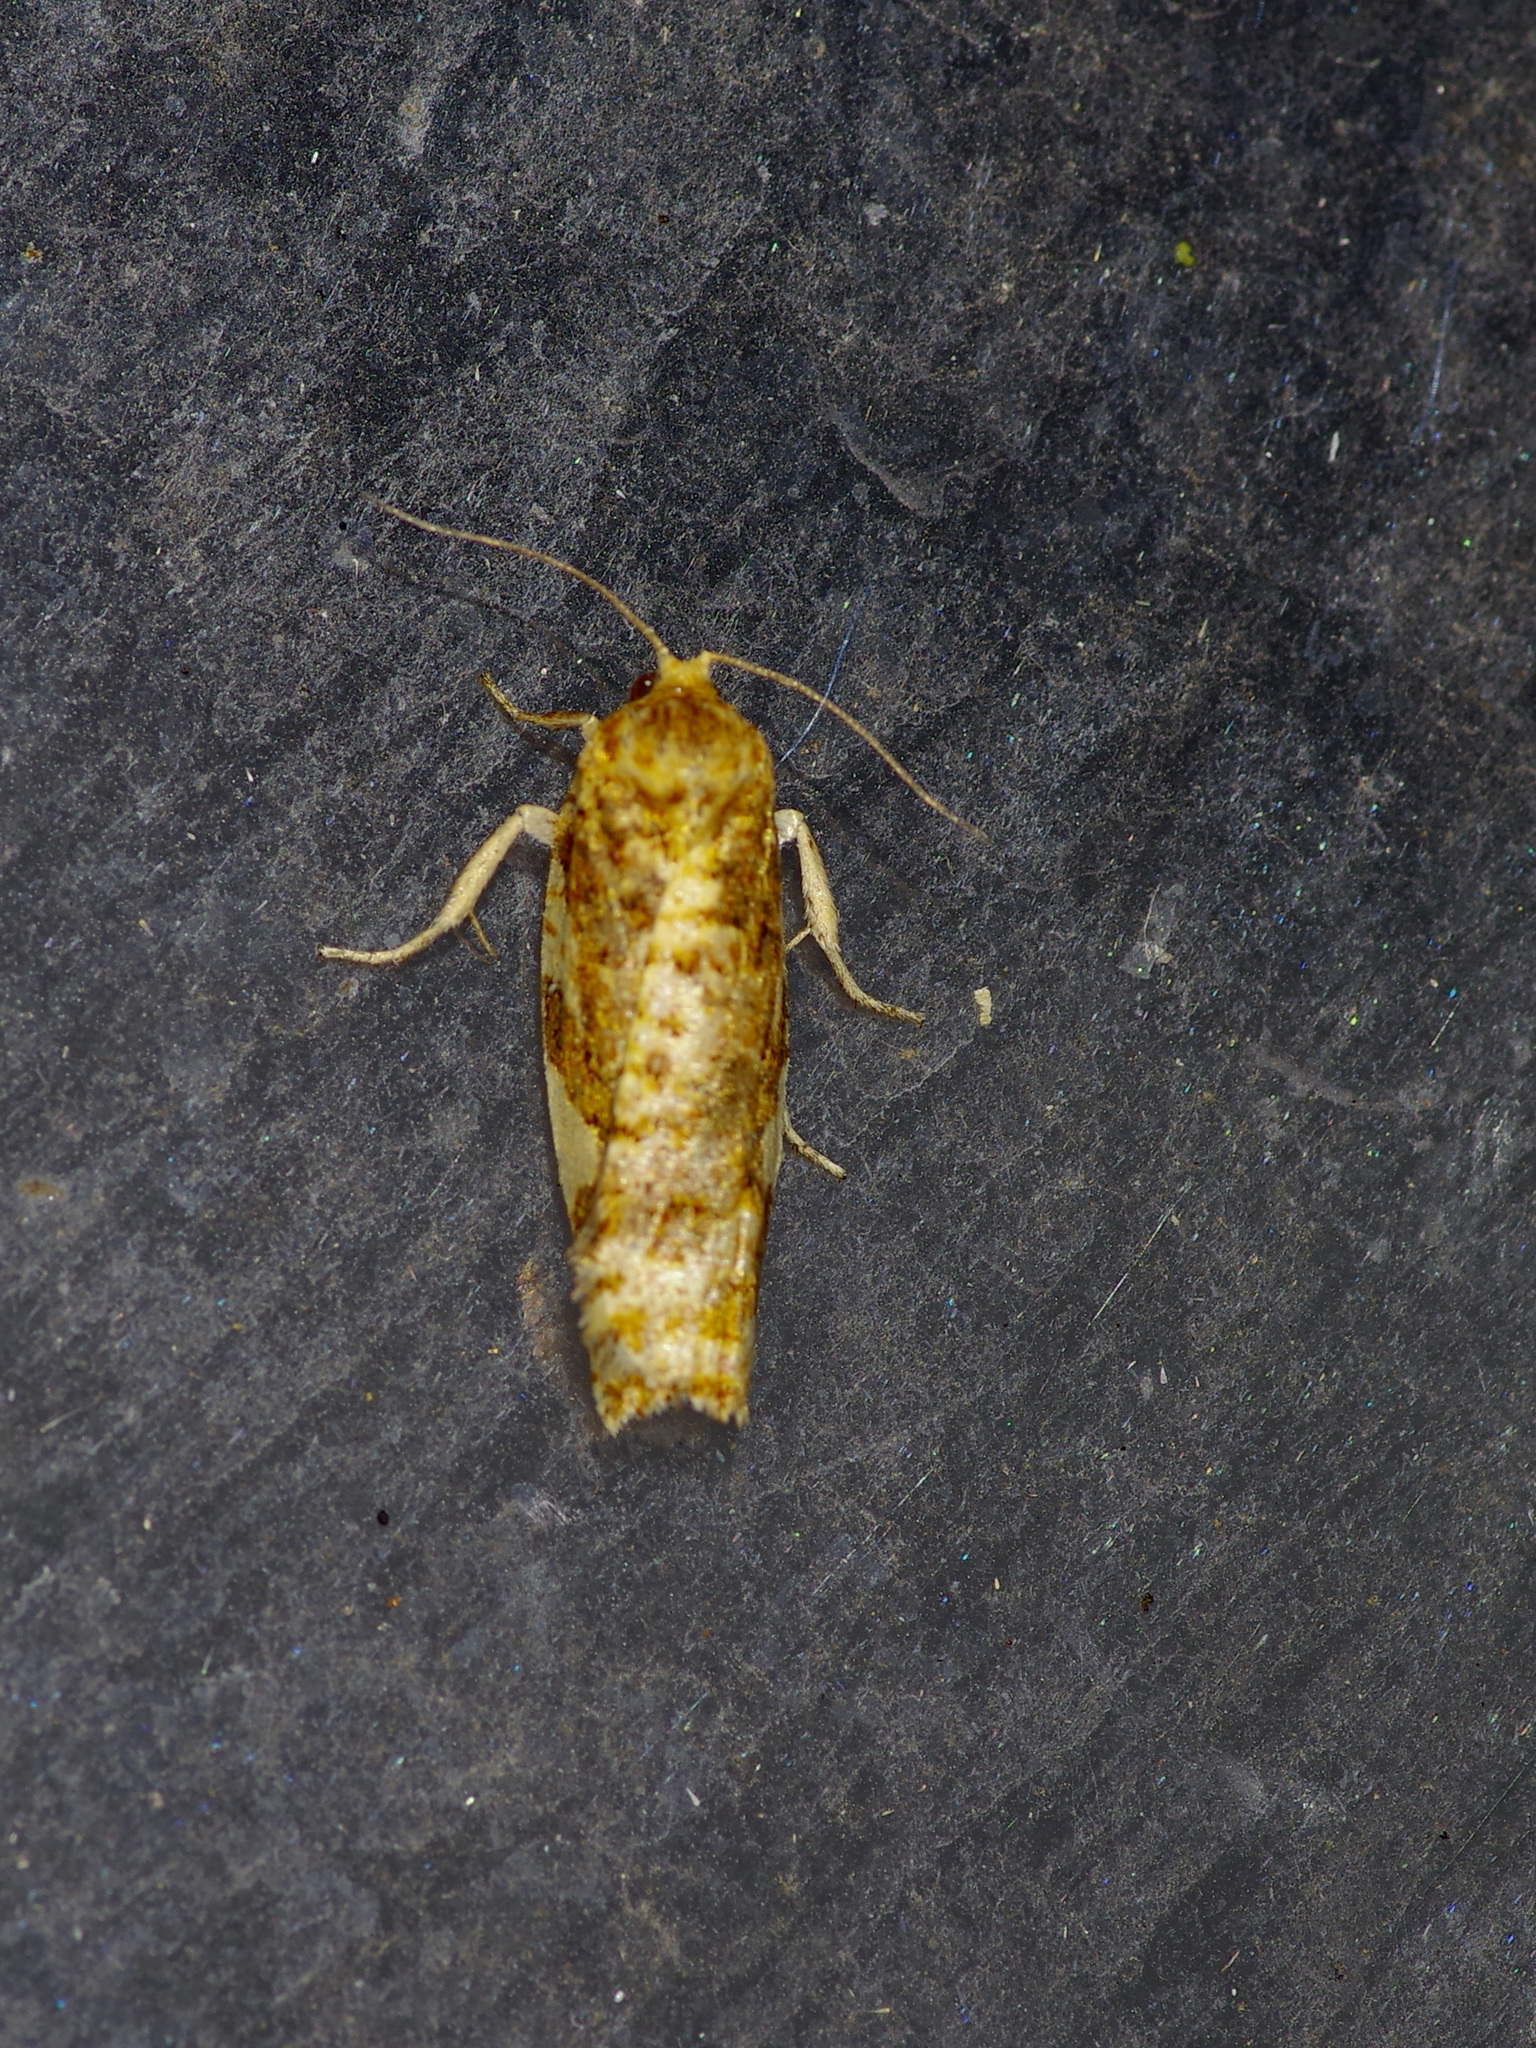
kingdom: Animalia
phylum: Arthropoda
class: Insecta
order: Lepidoptera
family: Tortricidae
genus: Archips
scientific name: Archips argyrospila
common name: Fruit-tree leafroller moth
